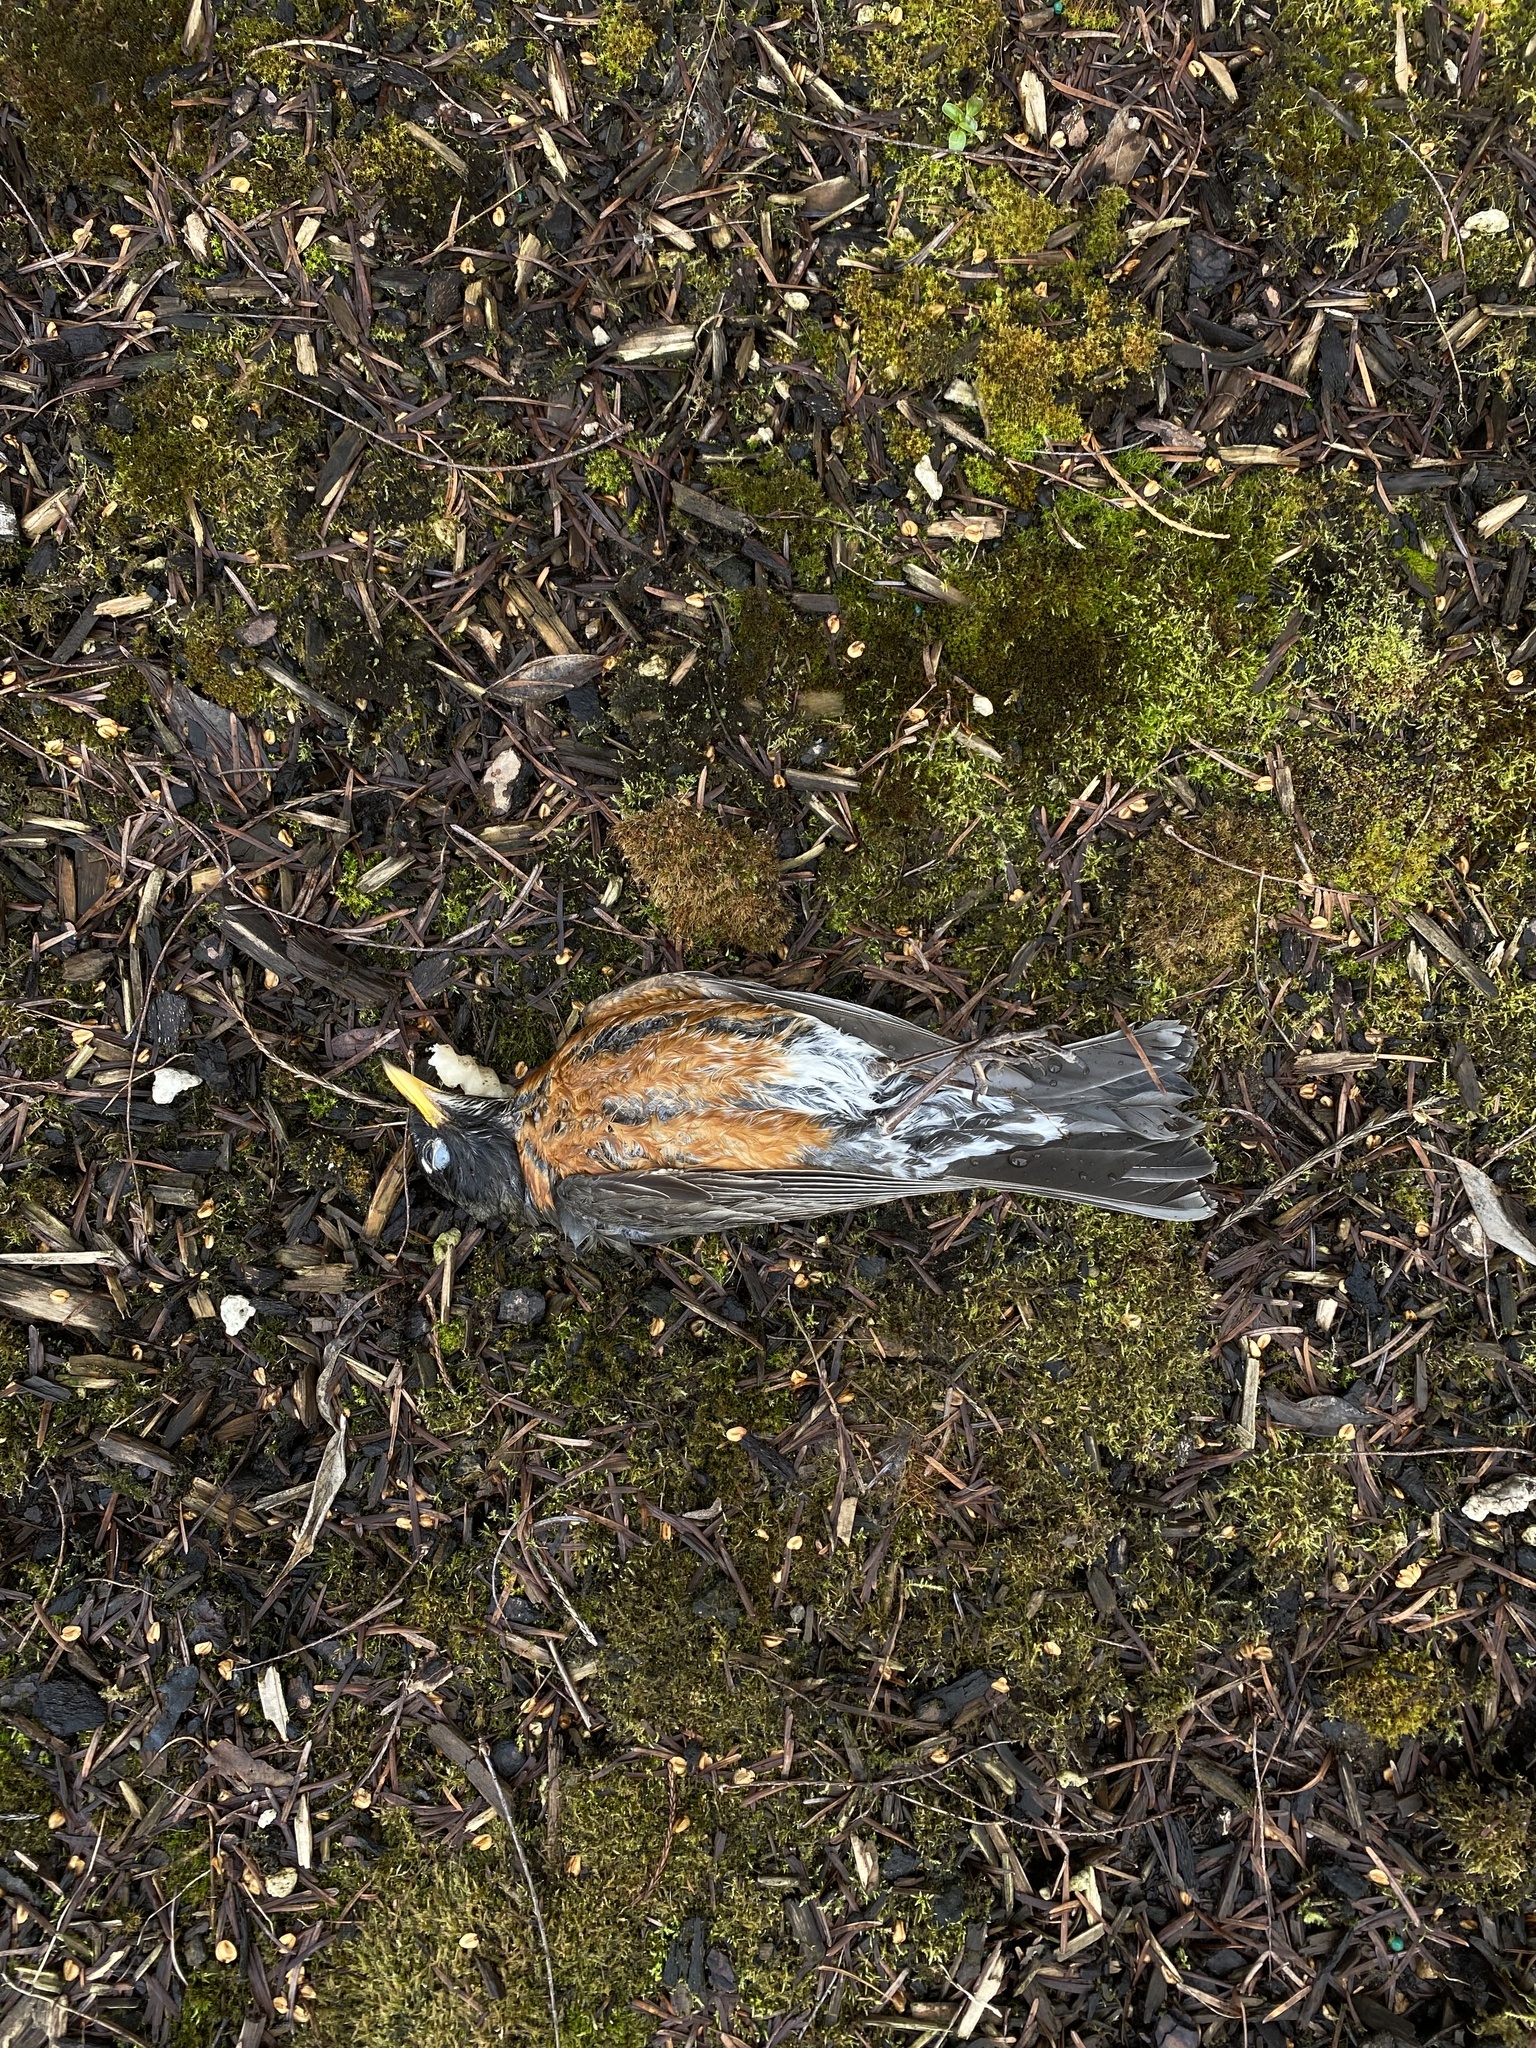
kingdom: Animalia
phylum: Chordata
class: Aves
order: Passeriformes
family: Turdidae
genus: Turdus
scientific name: Turdus migratorius
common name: American robin
